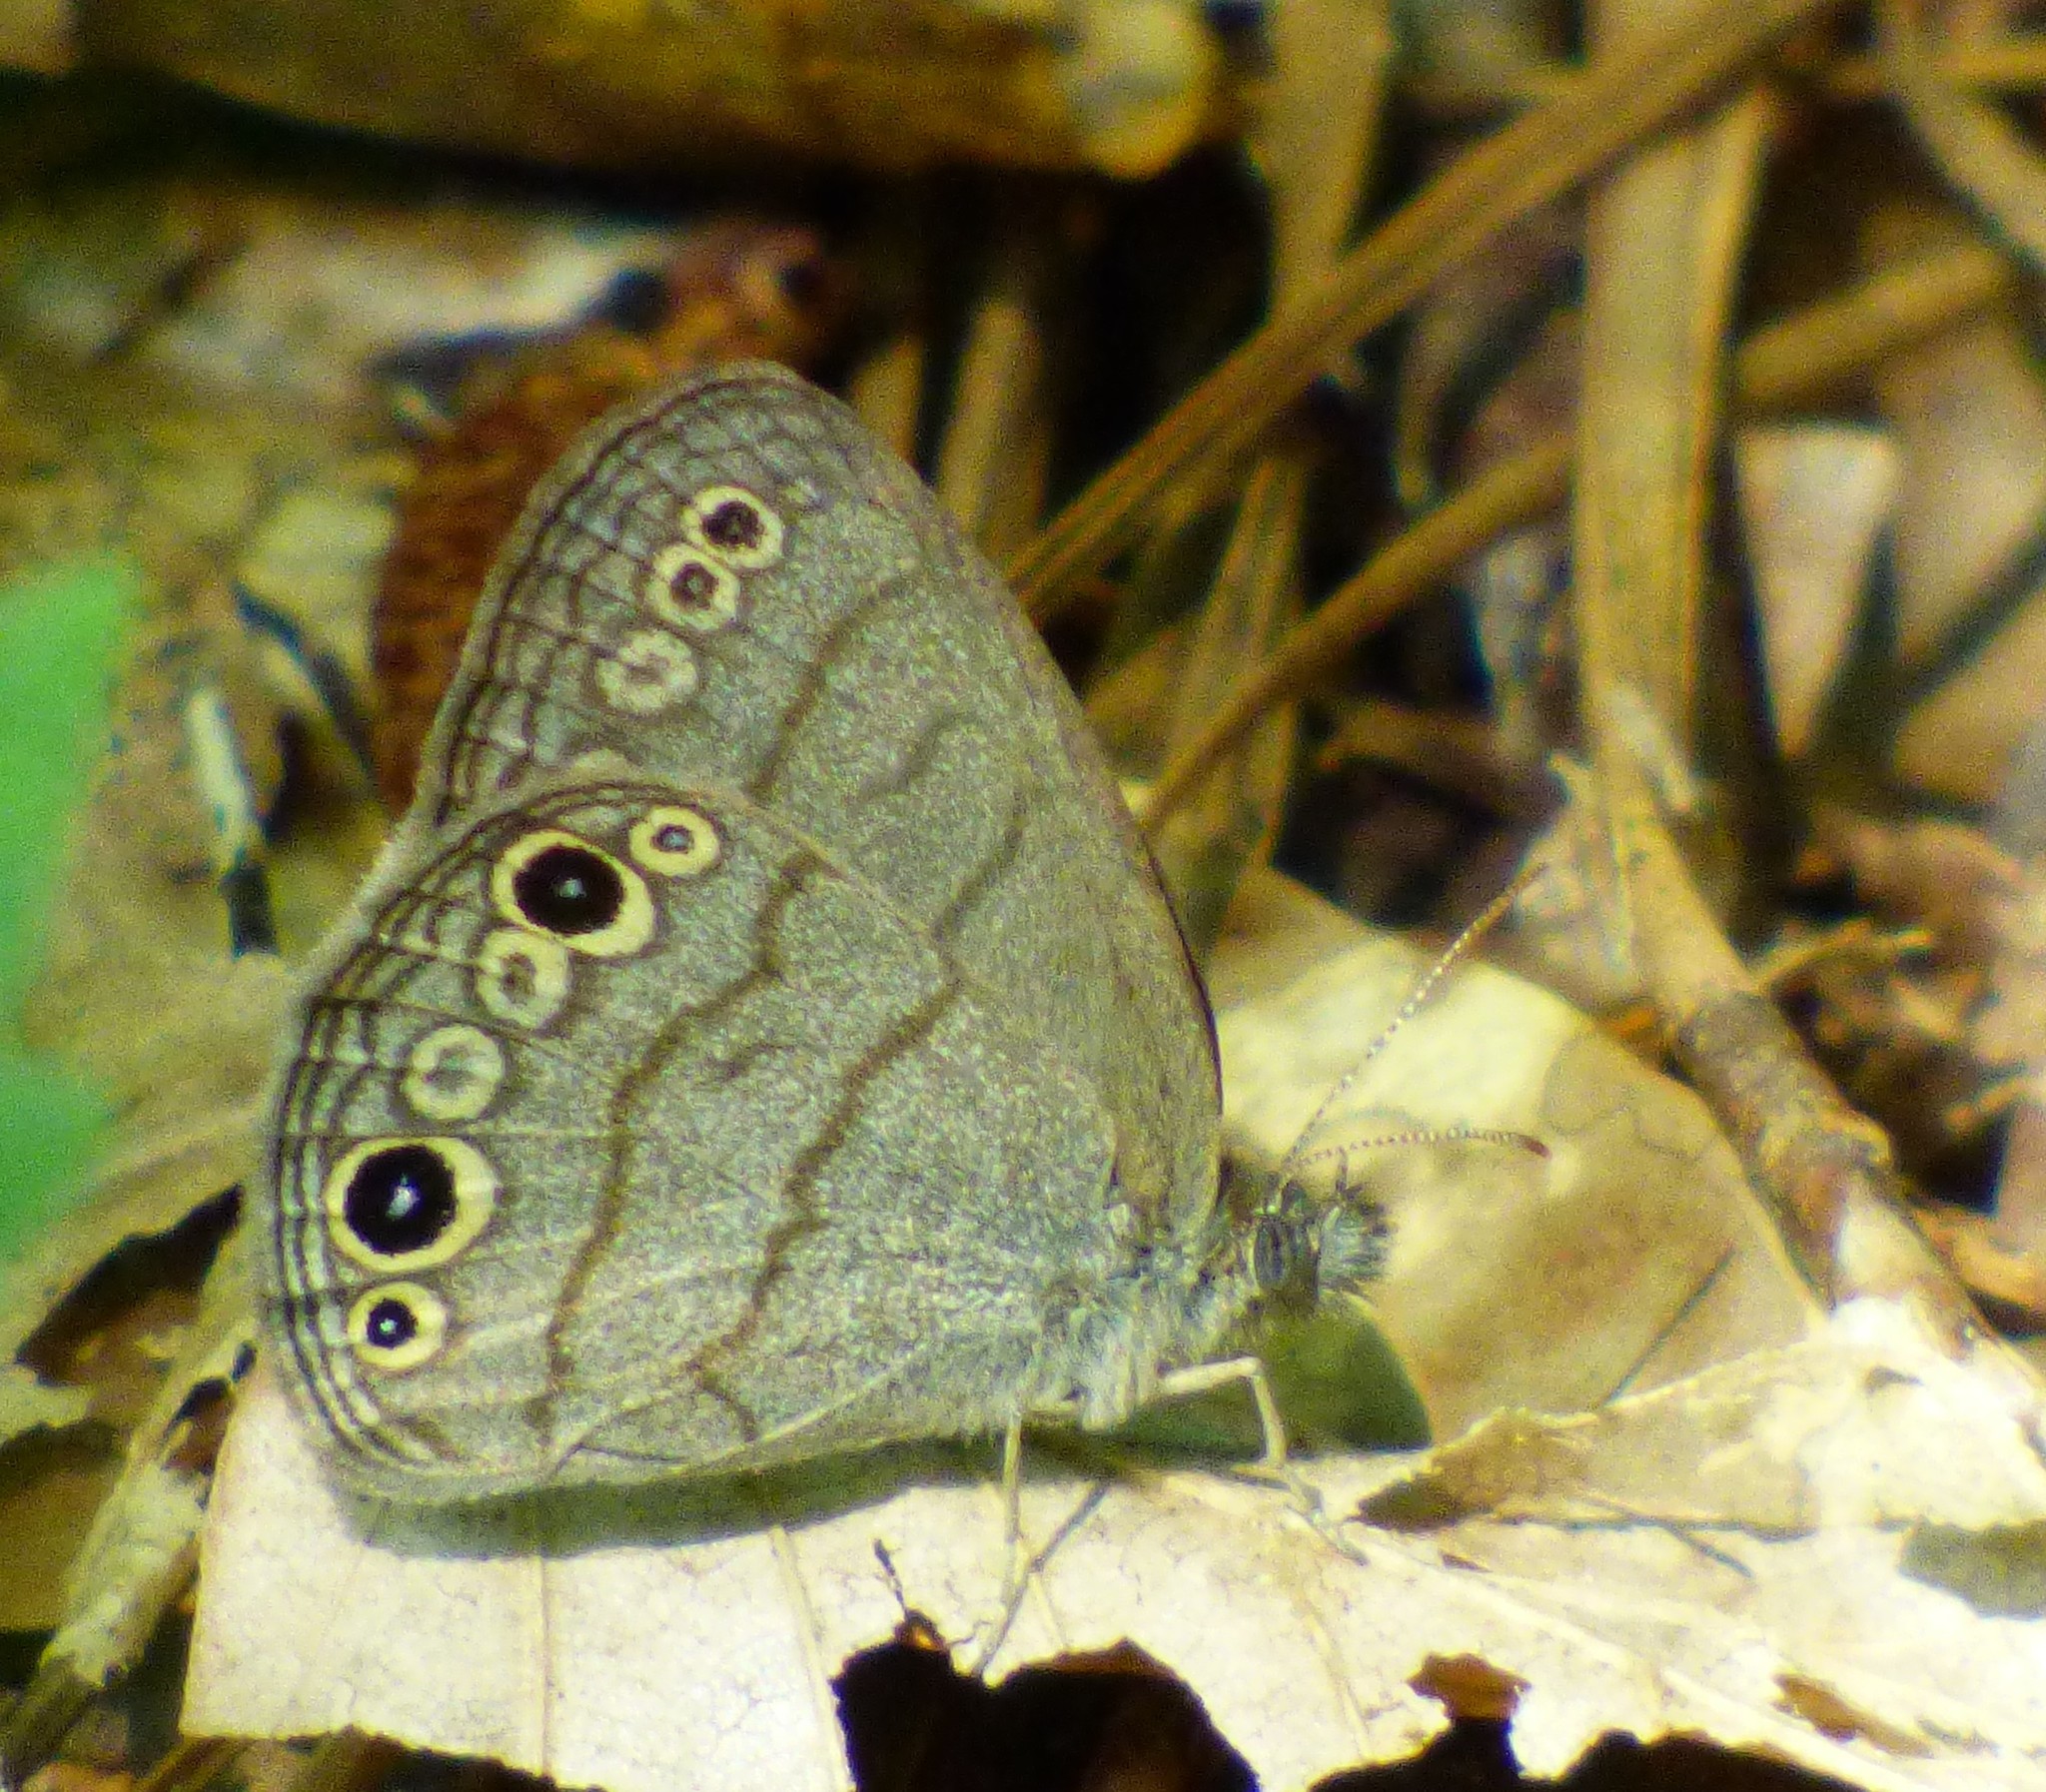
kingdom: Animalia
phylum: Arthropoda
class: Insecta
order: Lepidoptera
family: Nymphalidae
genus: Hermeuptychia
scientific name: Hermeuptychia hermes
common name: Hermes satyr
